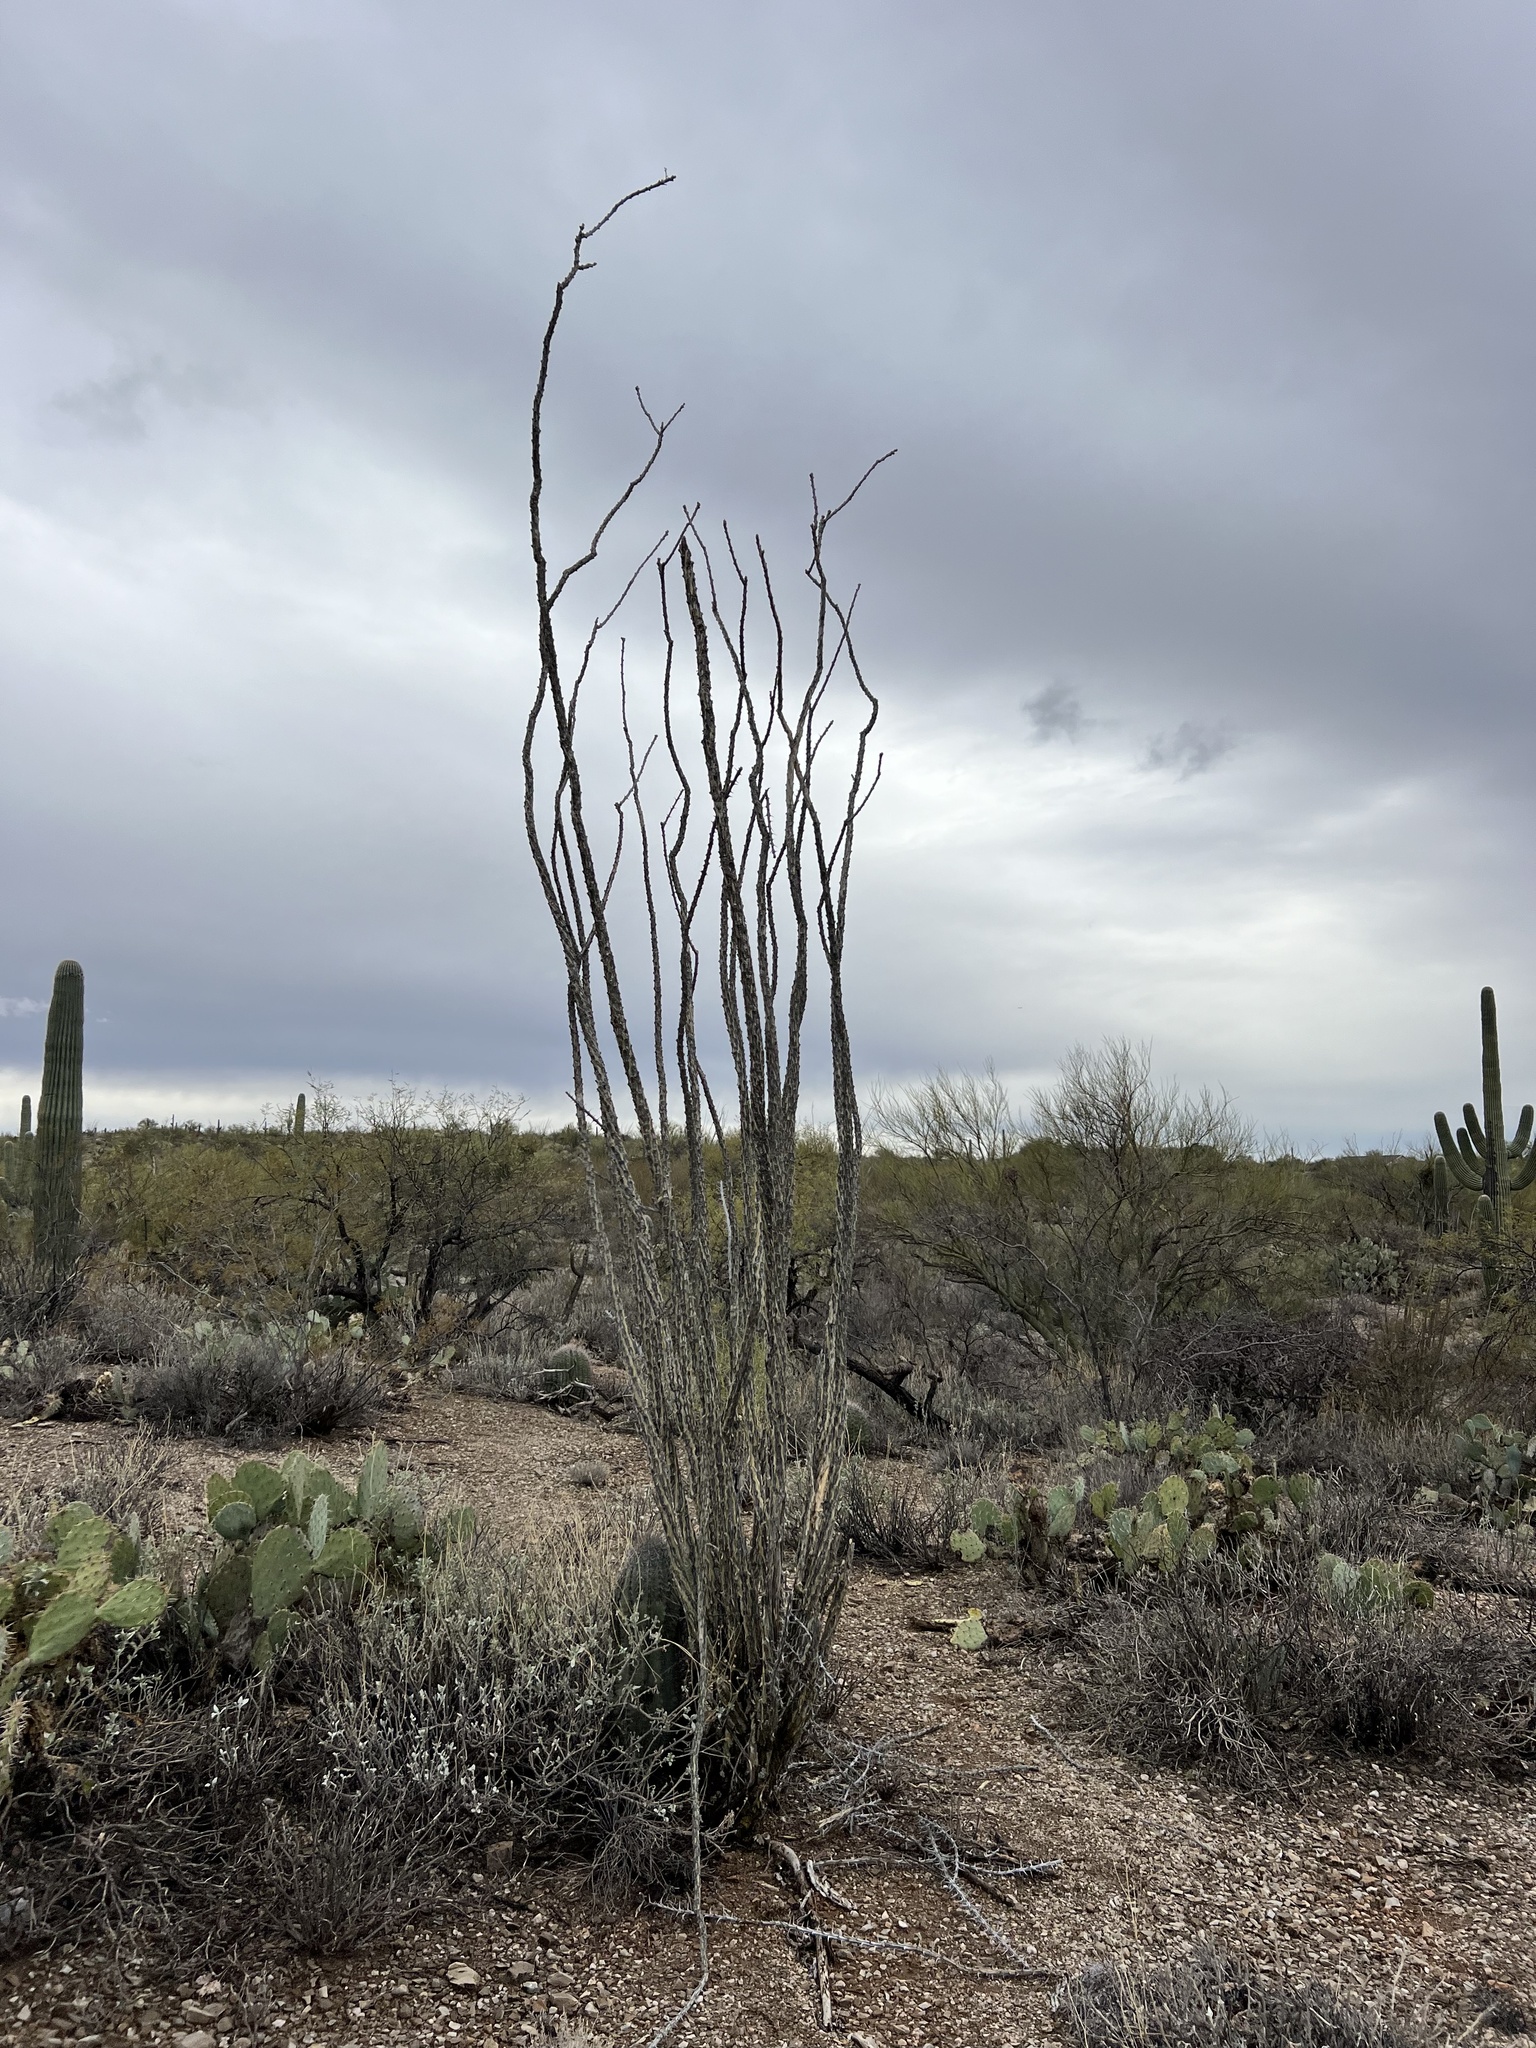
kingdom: Plantae
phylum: Tracheophyta
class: Magnoliopsida
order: Ericales
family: Fouquieriaceae
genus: Fouquieria
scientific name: Fouquieria splendens
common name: Vine-cactus
